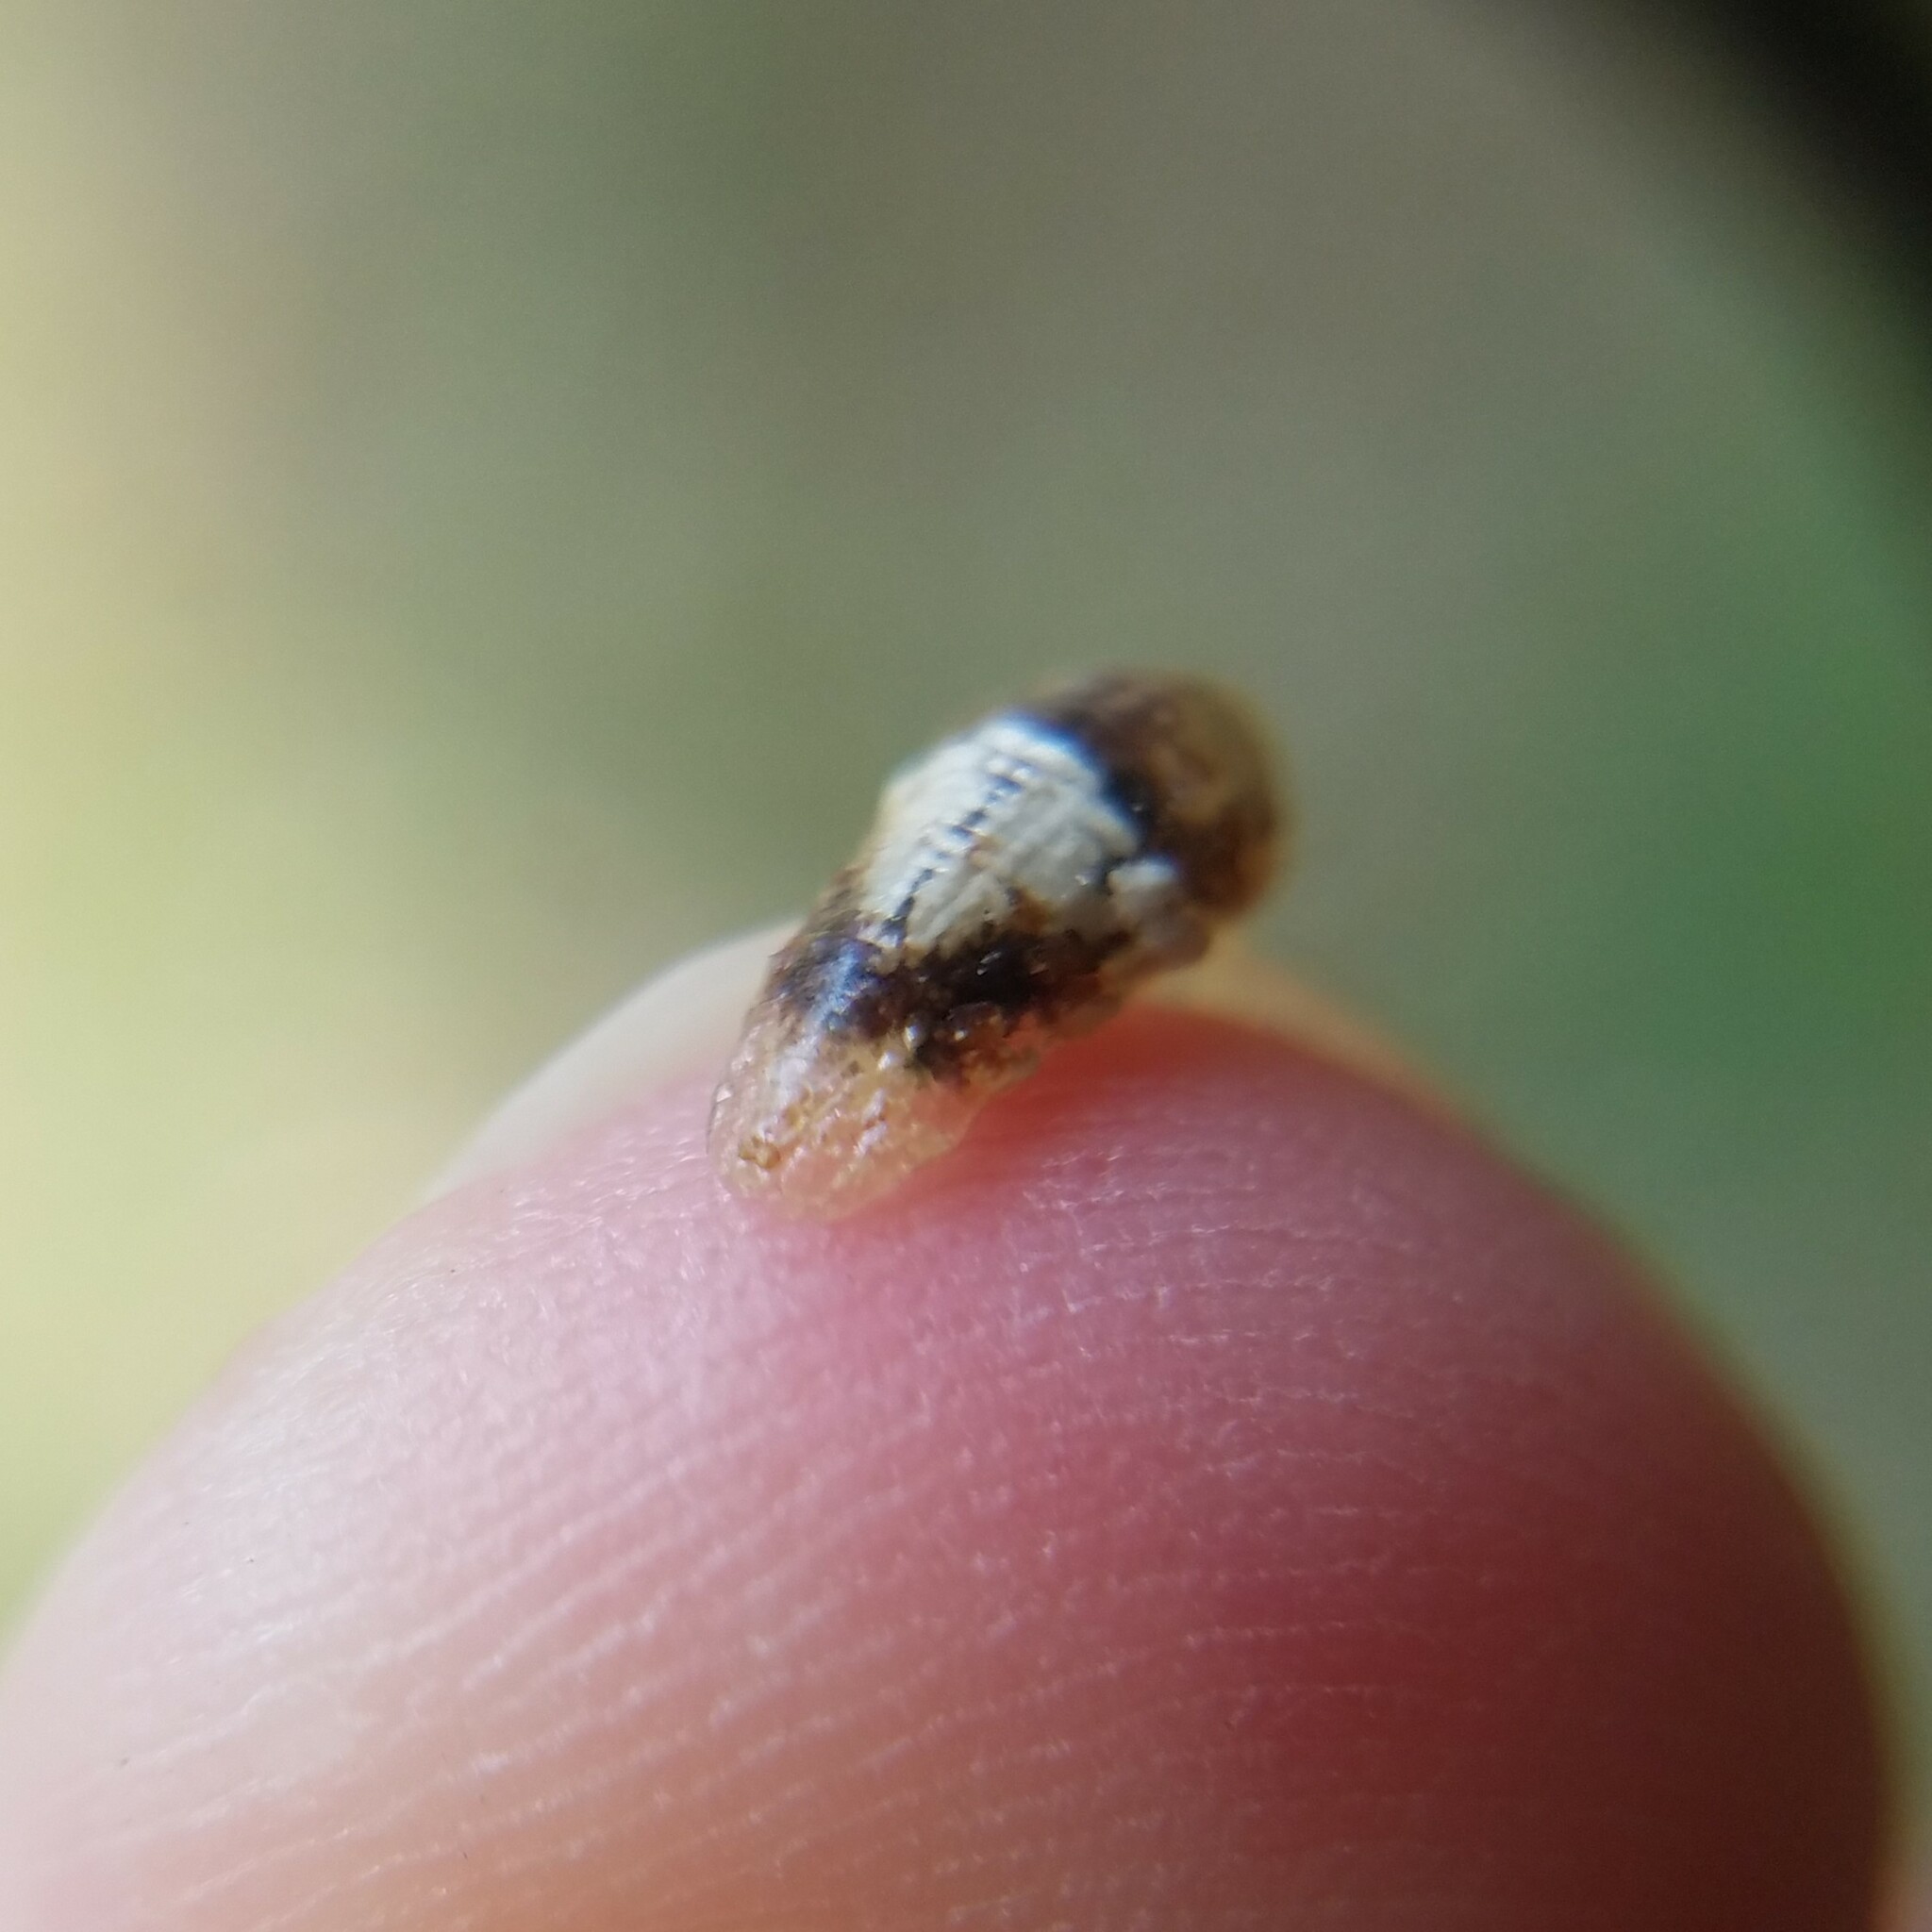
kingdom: Animalia
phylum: Arthropoda
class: Insecta
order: Diptera
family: Syrphidae
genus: Ocyptamus
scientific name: Ocyptamus fuscipennis
